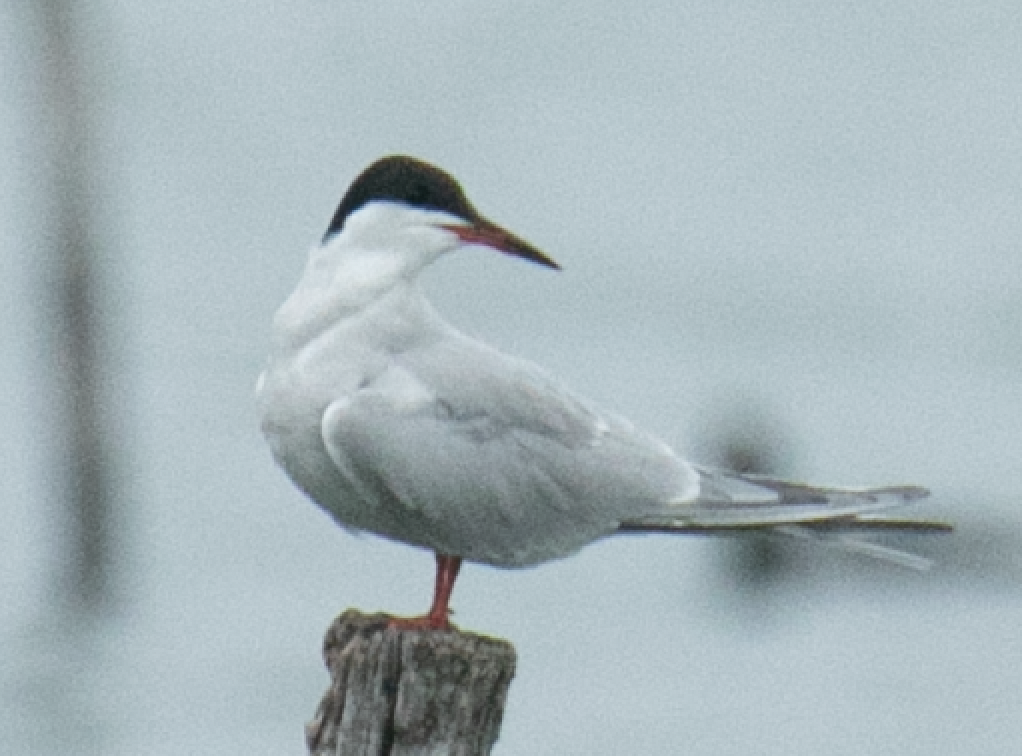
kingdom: Animalia
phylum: Chordata
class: Aves
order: Charadriiformes
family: Laridae
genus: Sterna
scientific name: Sterna hirundo
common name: Common tern
